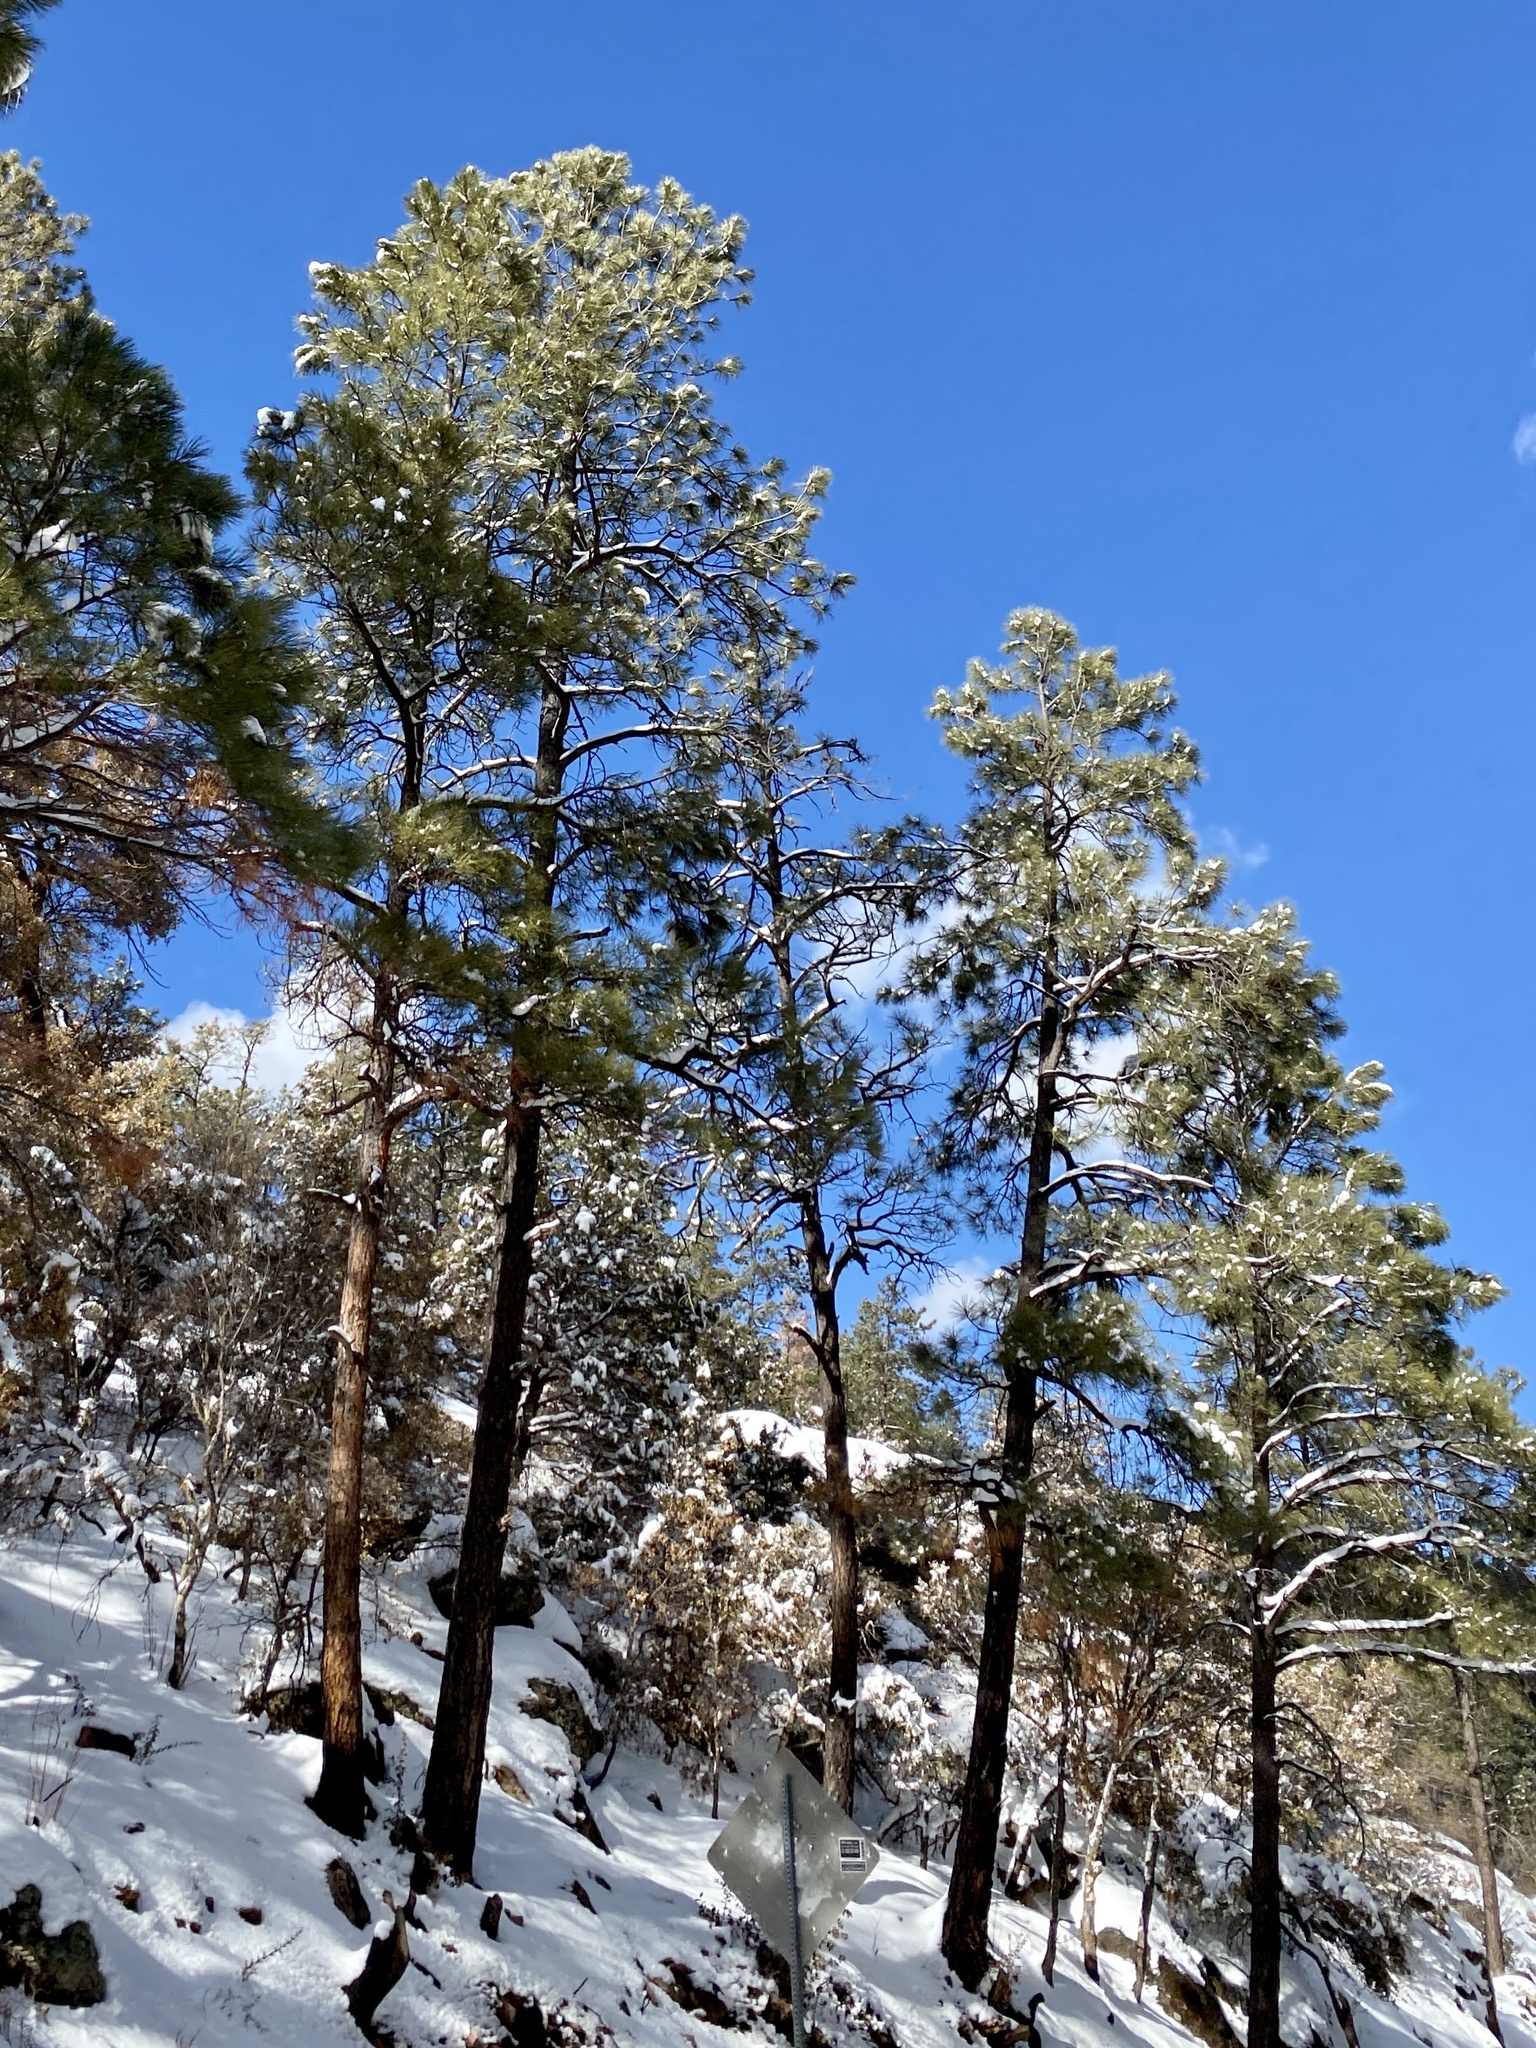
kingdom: Plantae
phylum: Tracheophyta
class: Pinopsida
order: Pinales
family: Pinaceae
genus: Pinus
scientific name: Pinus ponderosa
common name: Western yellow-pine
